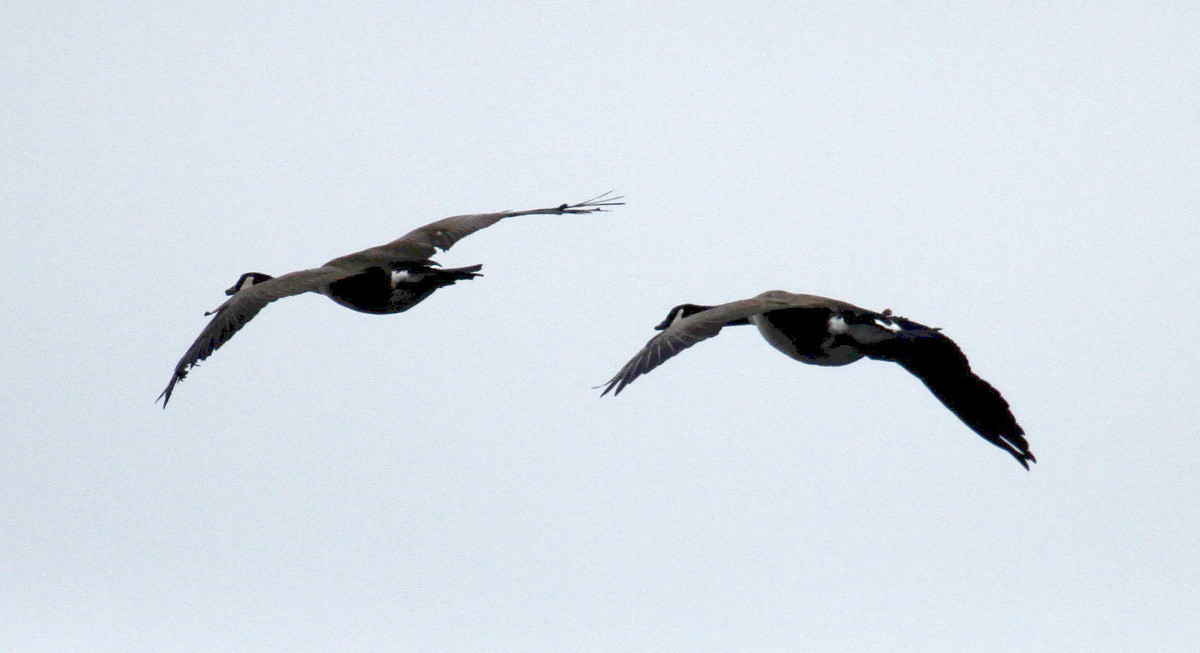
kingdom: Animalia
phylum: Chordata
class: Aves
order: Anseriformes
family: Anatidae
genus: Branta
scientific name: Branta canadensis
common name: Canada goose
